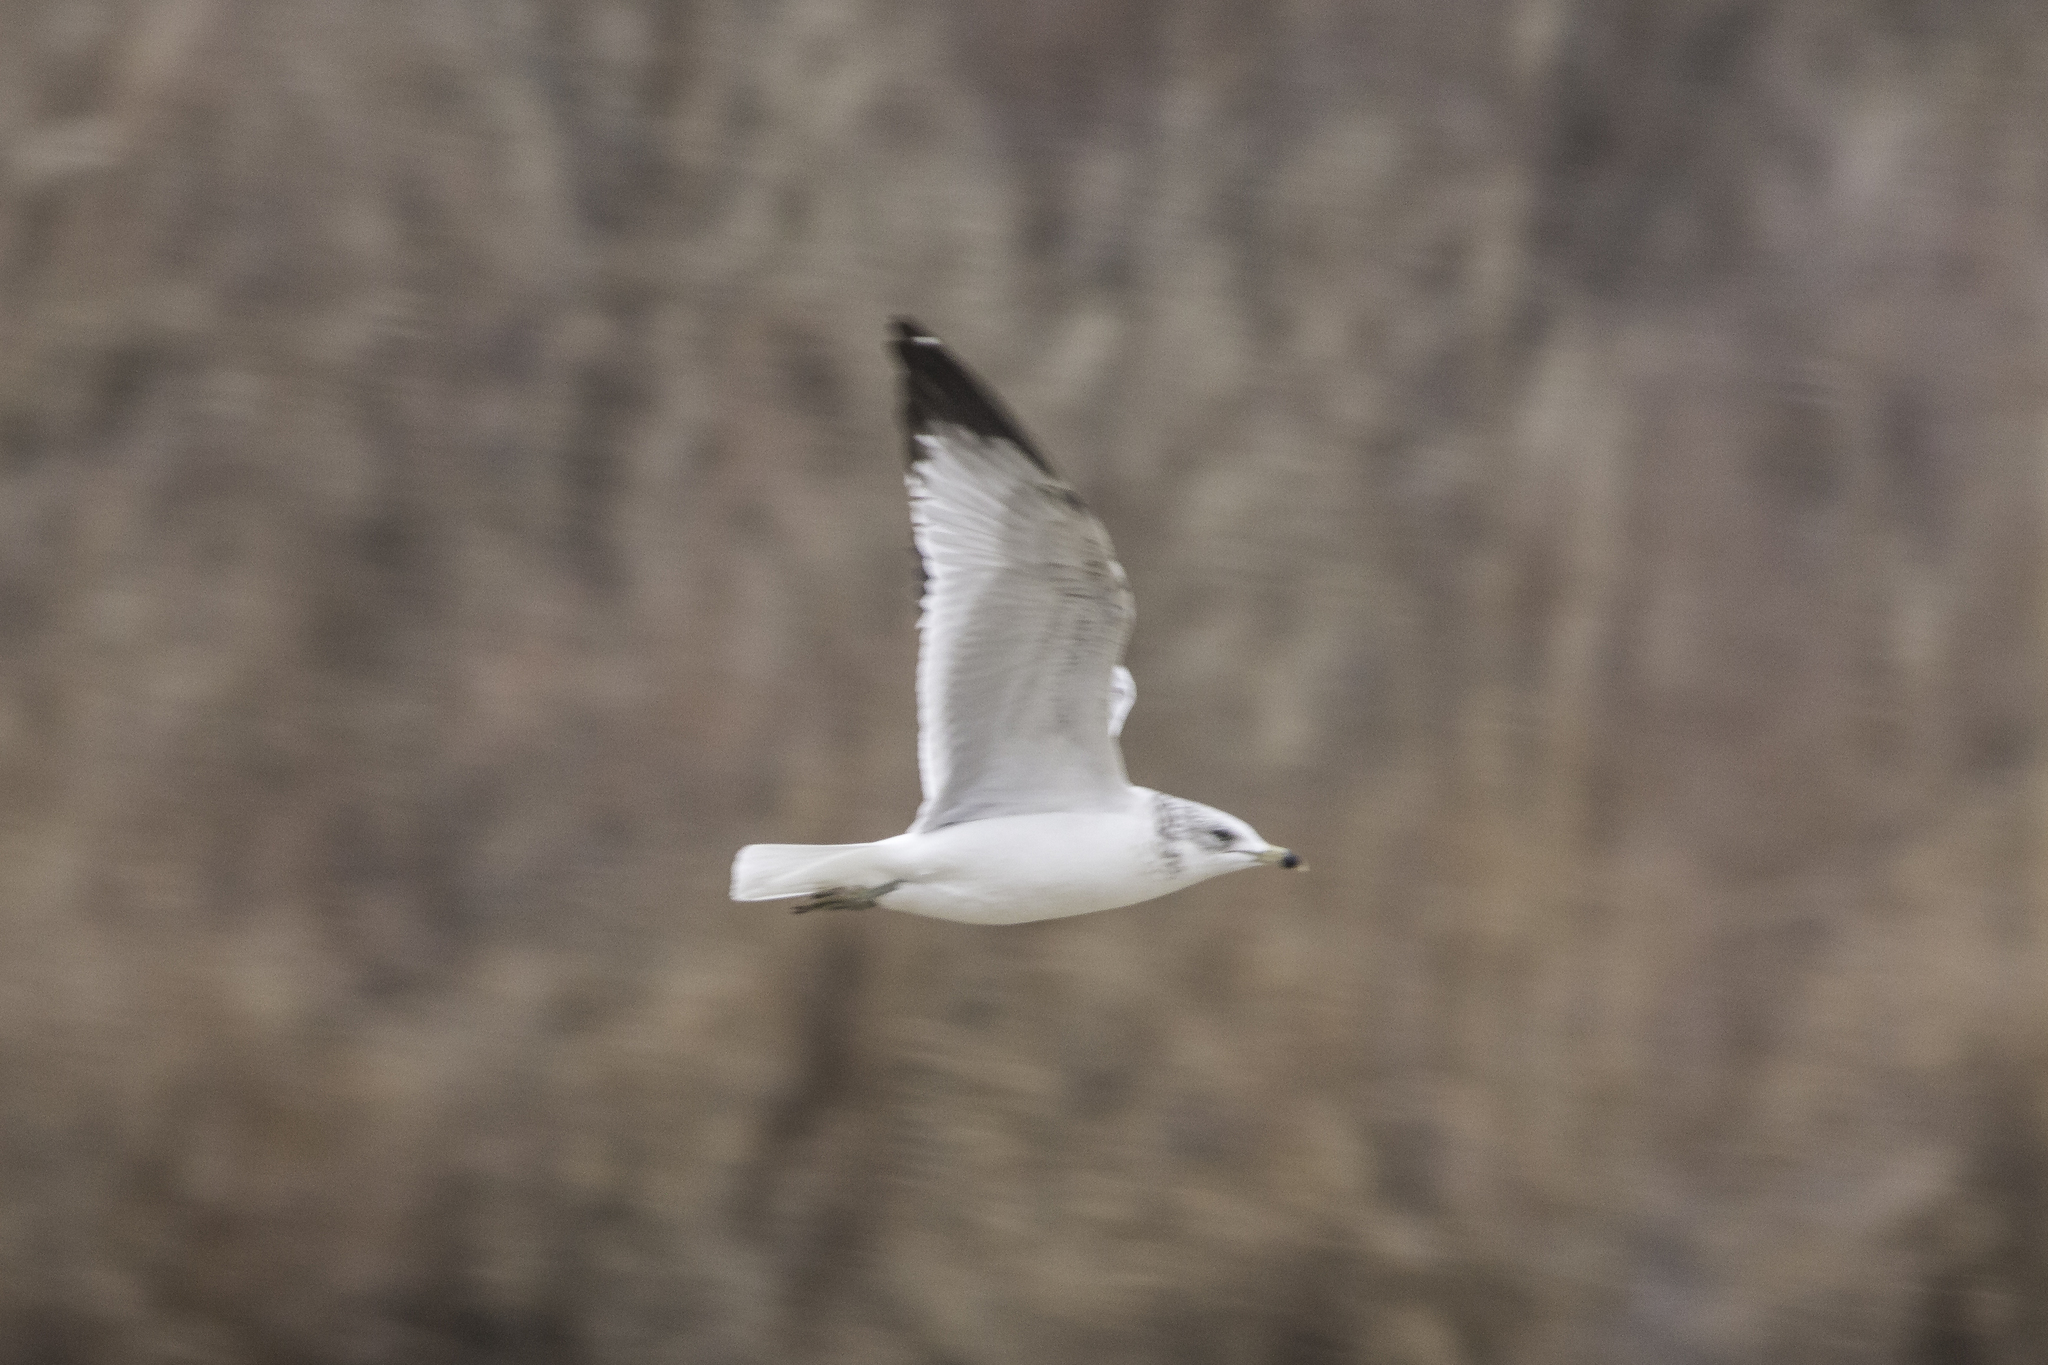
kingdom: Animalia
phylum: Chordata
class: Aves
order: Charadriiformes
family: Laridae
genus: Larus
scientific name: Larus delawarensis
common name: Ring-billed gull
